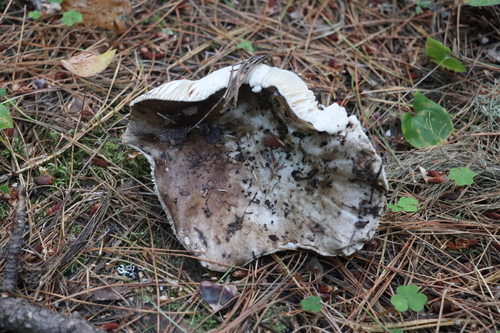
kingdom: Fungi
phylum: Basidiomycota
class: Agaricomycetes
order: Russulales
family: Russulaceae
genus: Russula
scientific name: Russula adusta
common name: Winecork brittlegill
